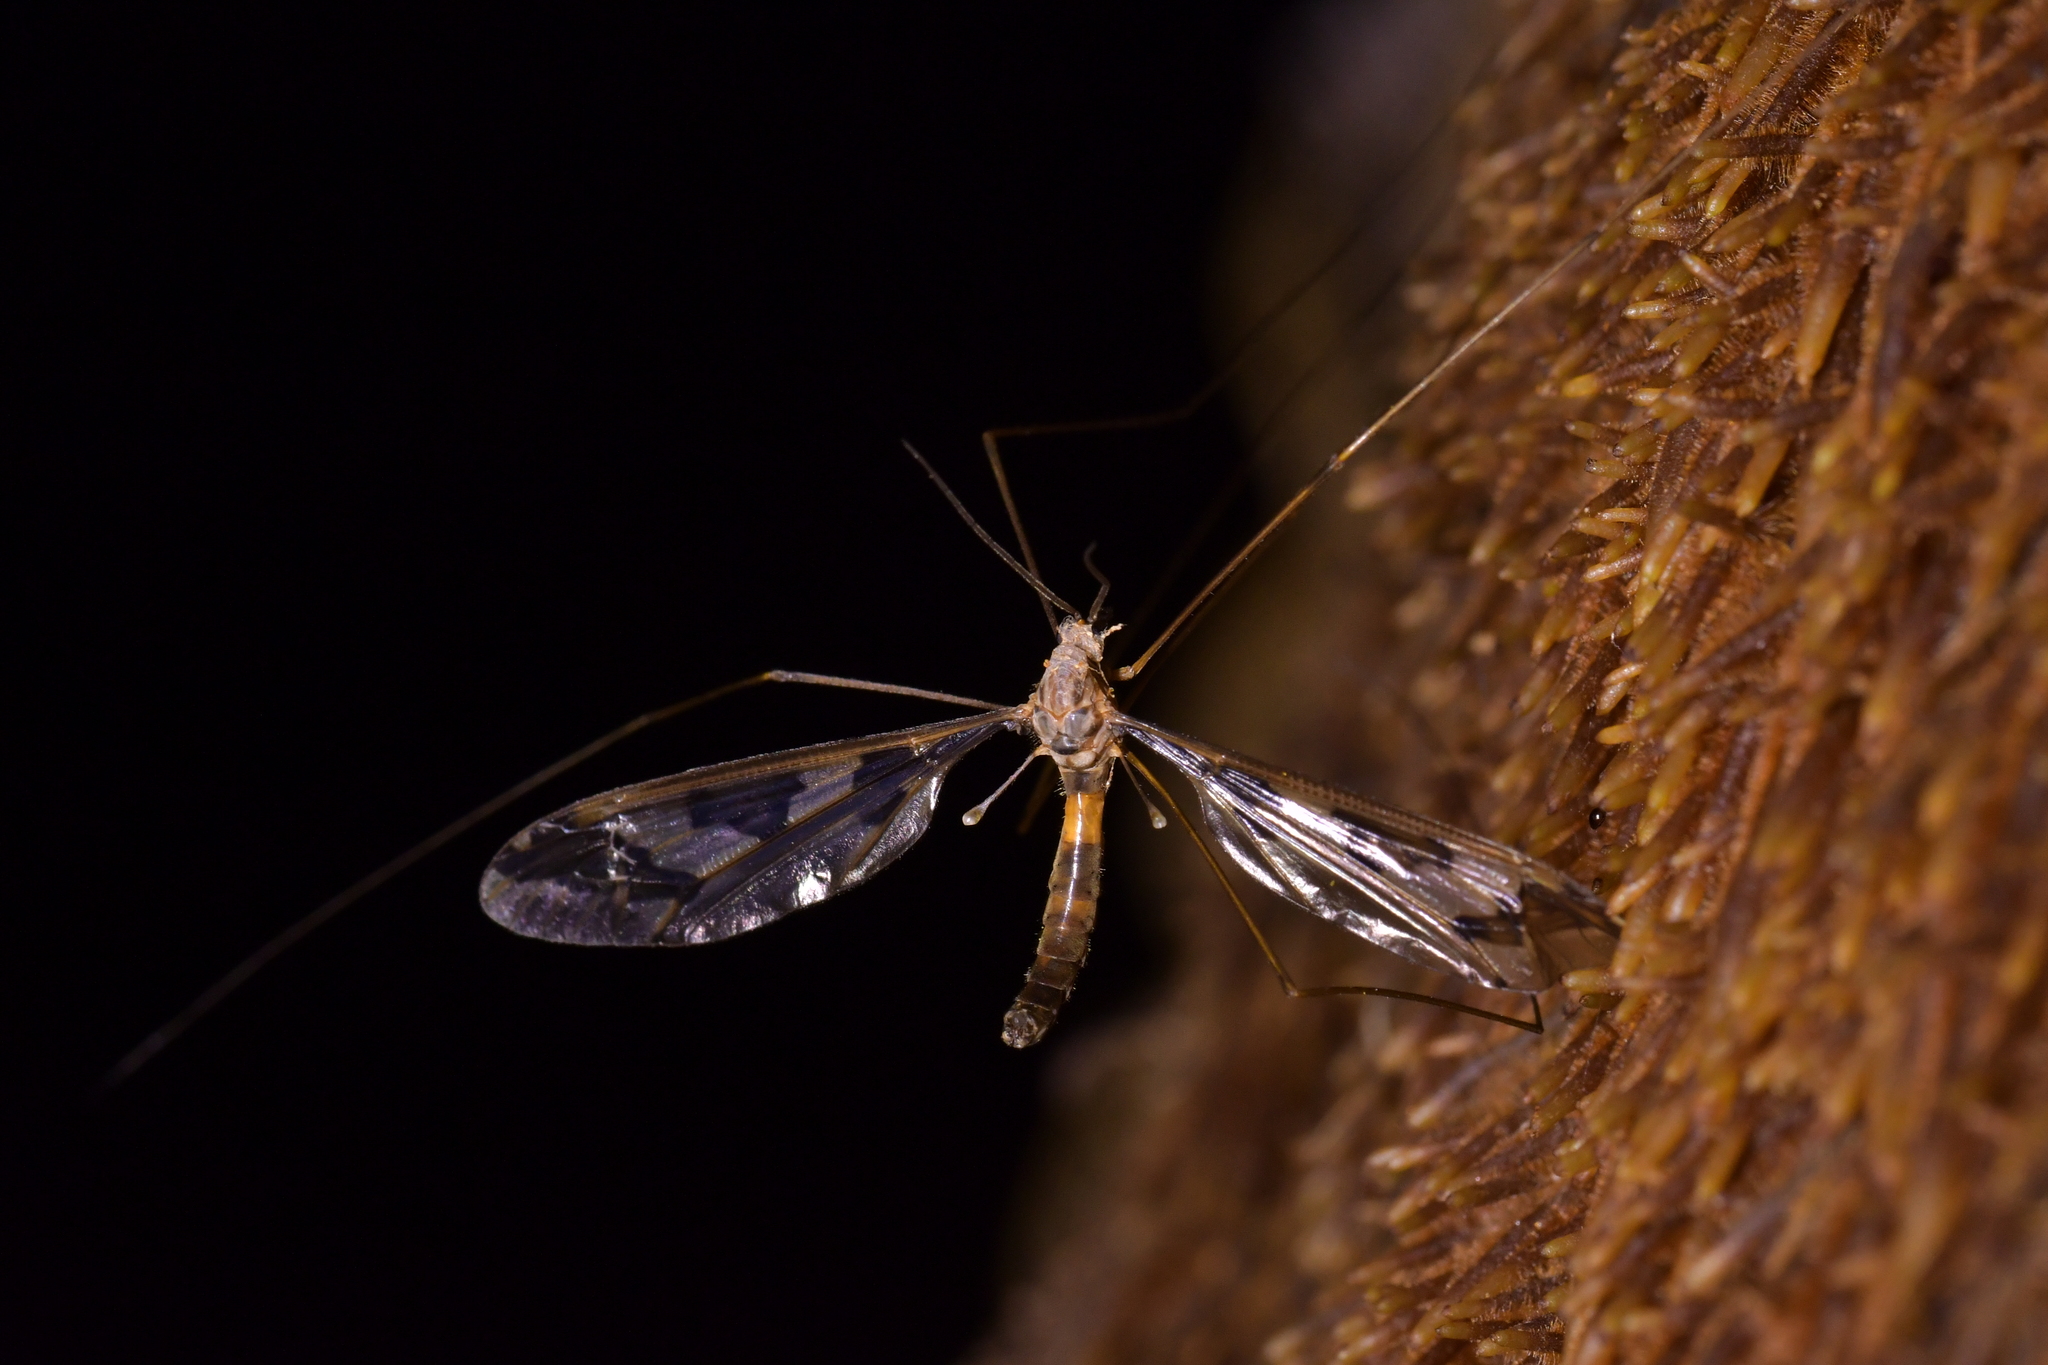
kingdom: Animalia
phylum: Arthropoda
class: Insecta
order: Diptera
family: Tipulidae
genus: Leptotarsus
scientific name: Leptotarsus binotatus
